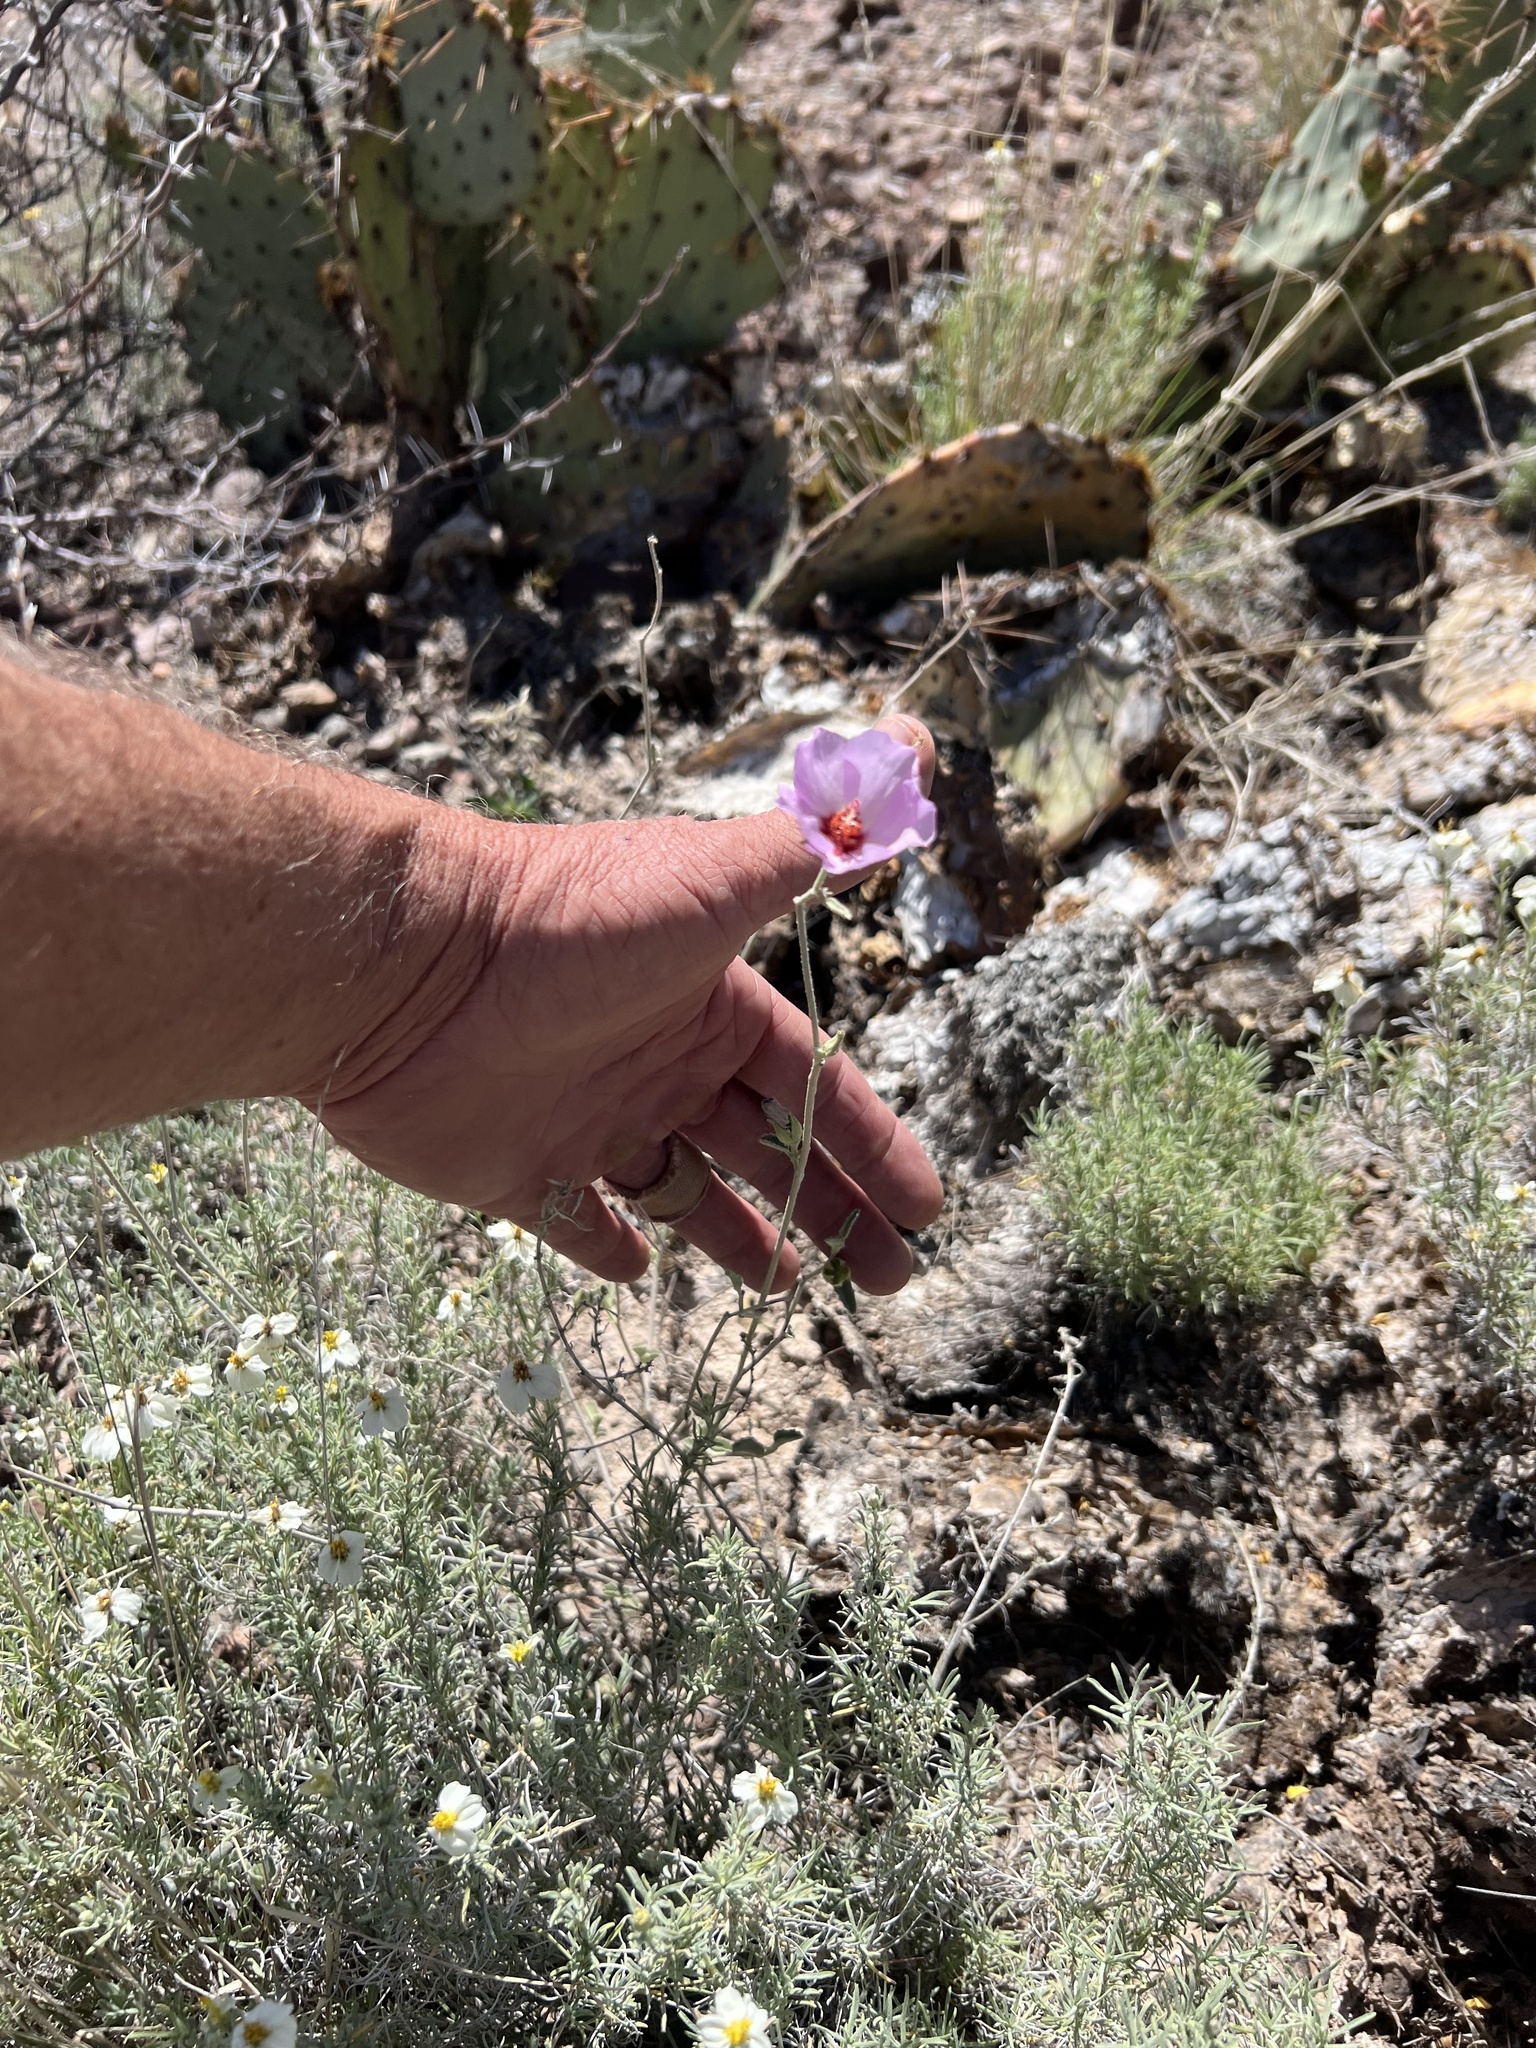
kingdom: Plantae
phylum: Tracheophyta
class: Magnoliopsida
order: Malvales
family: Malvaceae
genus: Hibiscus
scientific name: Hibiscus denudatus
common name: Paleface
